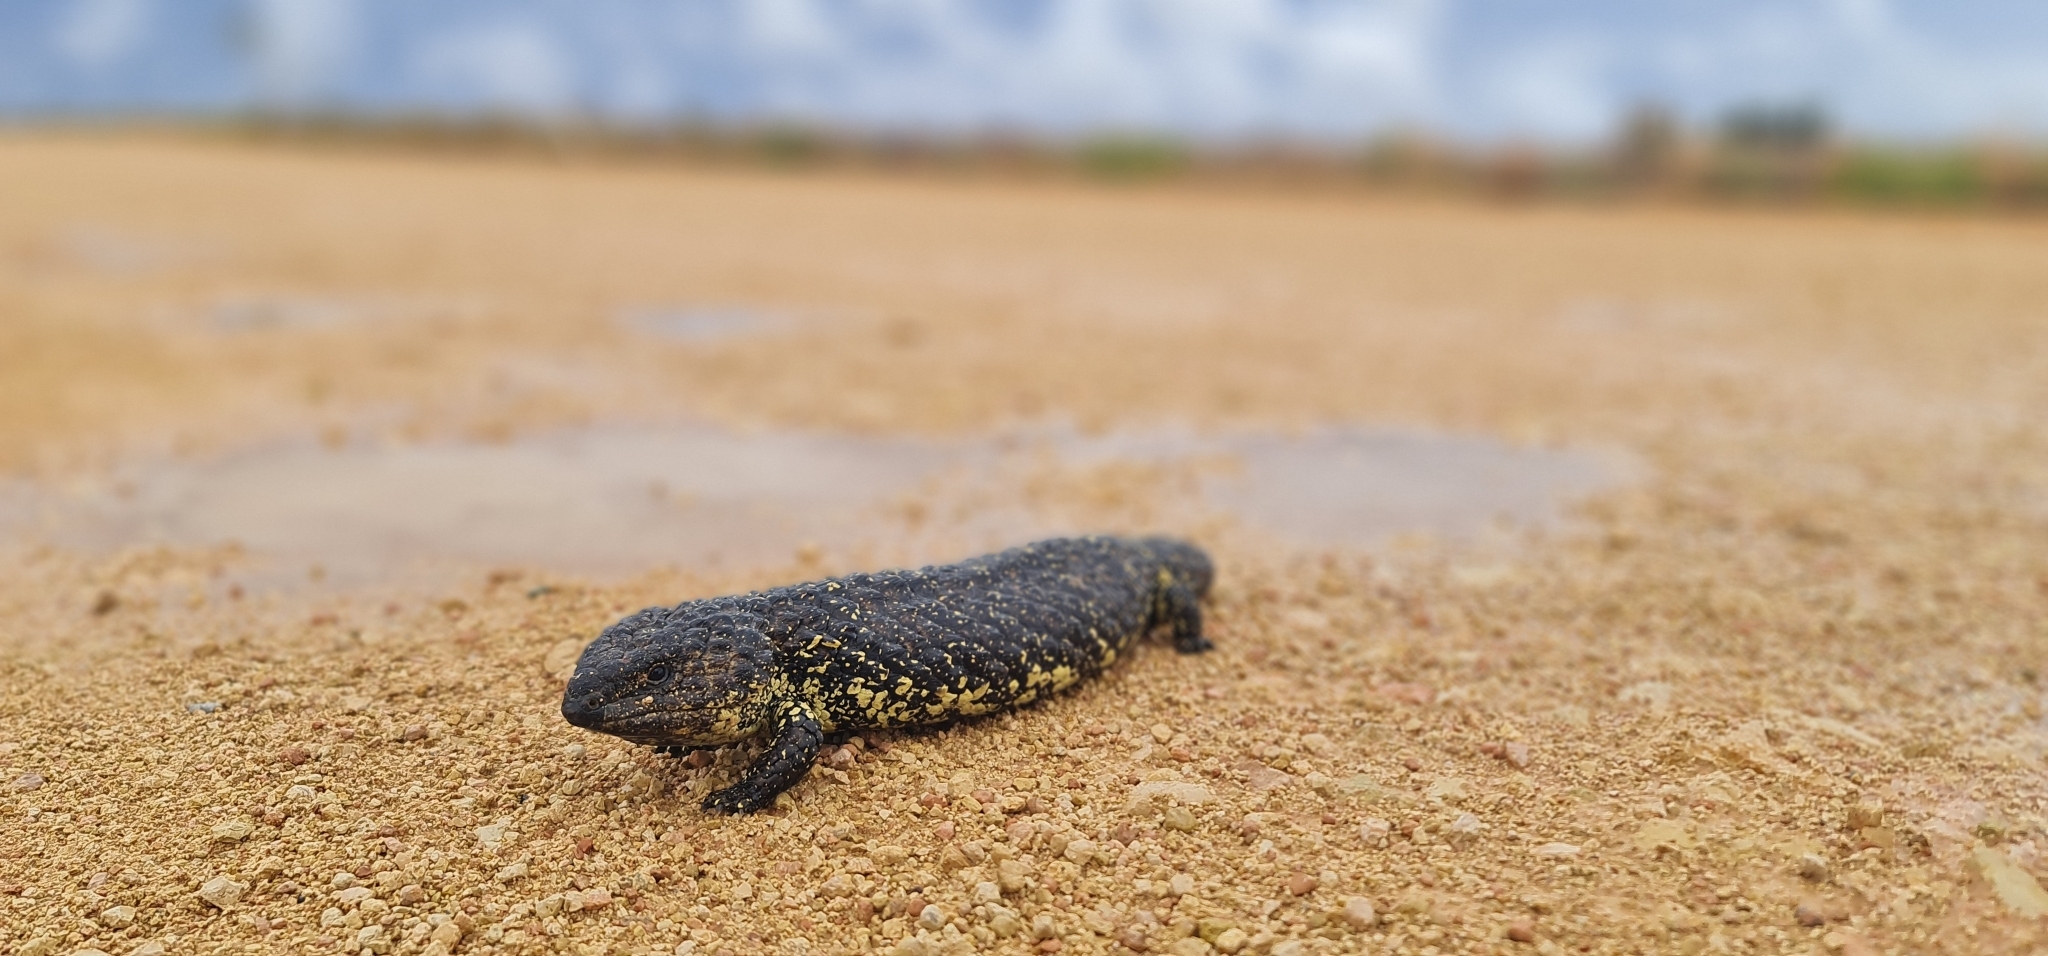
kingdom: Animalia
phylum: Chordata
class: Squamata
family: Scincidae
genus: Tiliqua
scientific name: Tiliqua rugosa
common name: Pinecone lizard
